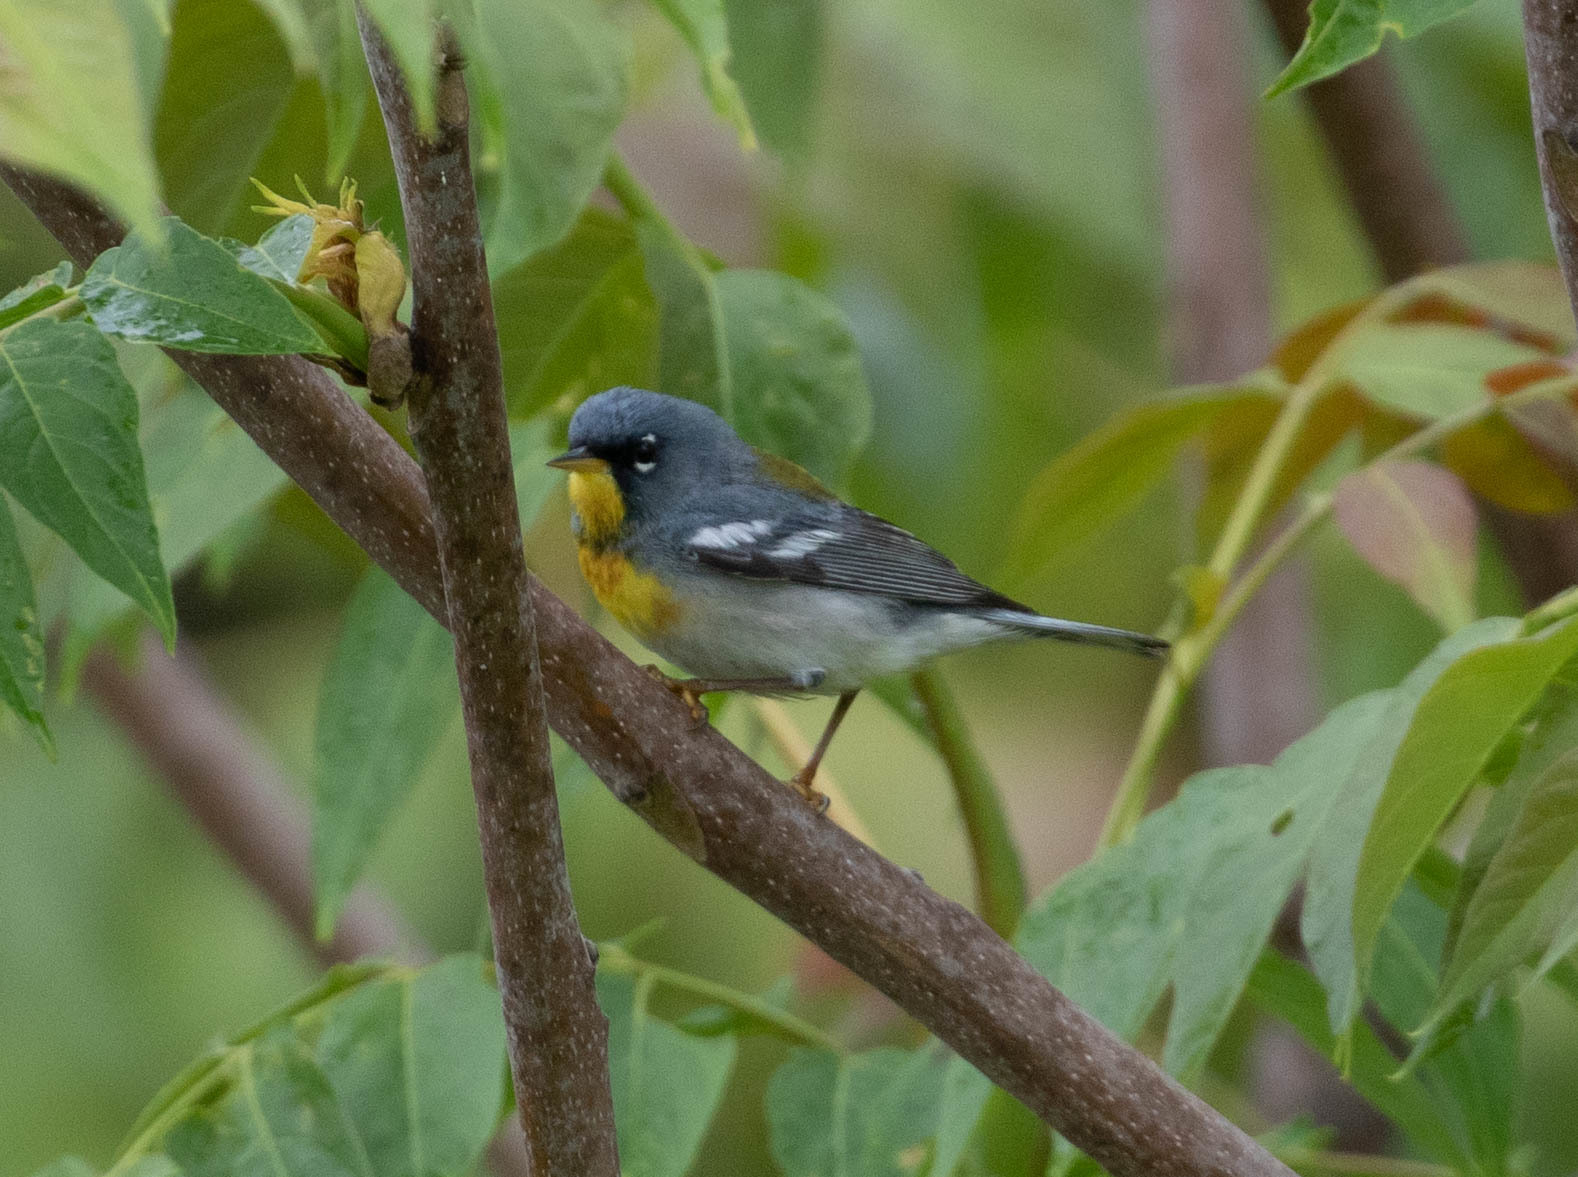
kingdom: Animalia
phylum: Chordata
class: Aves
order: Passeriformes
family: Parulidae
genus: Setophaga
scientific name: Setophaga americana
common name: Northern parula
